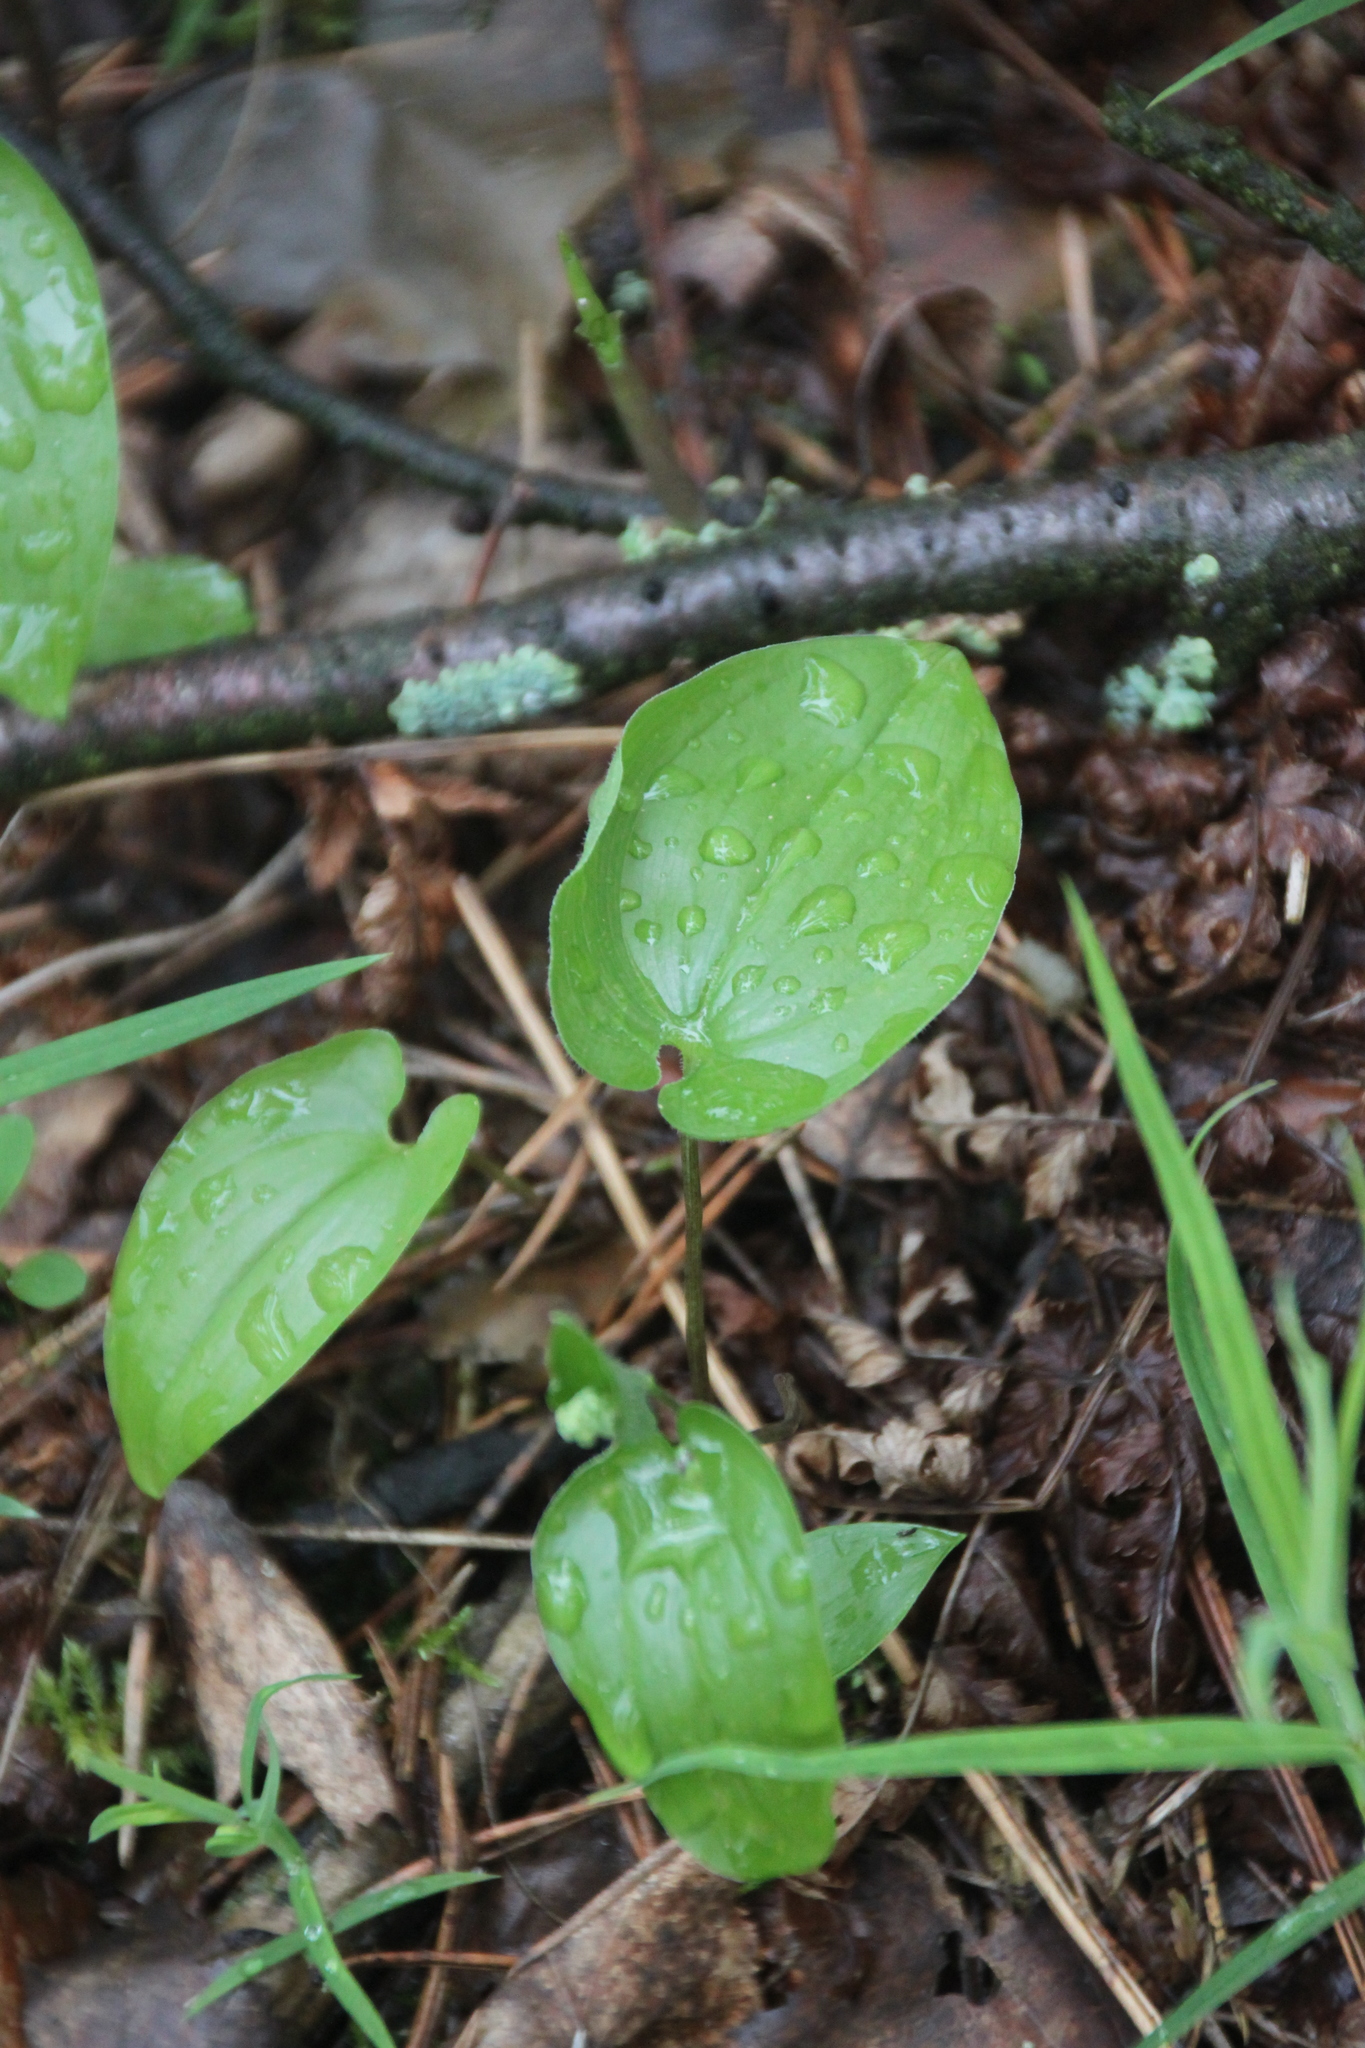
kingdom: Plantae
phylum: Tracheophyta
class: Liliopsida
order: Asparagales
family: Asparagaceae
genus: Maianthemum
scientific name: Maianthemum bifolium
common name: May lily
